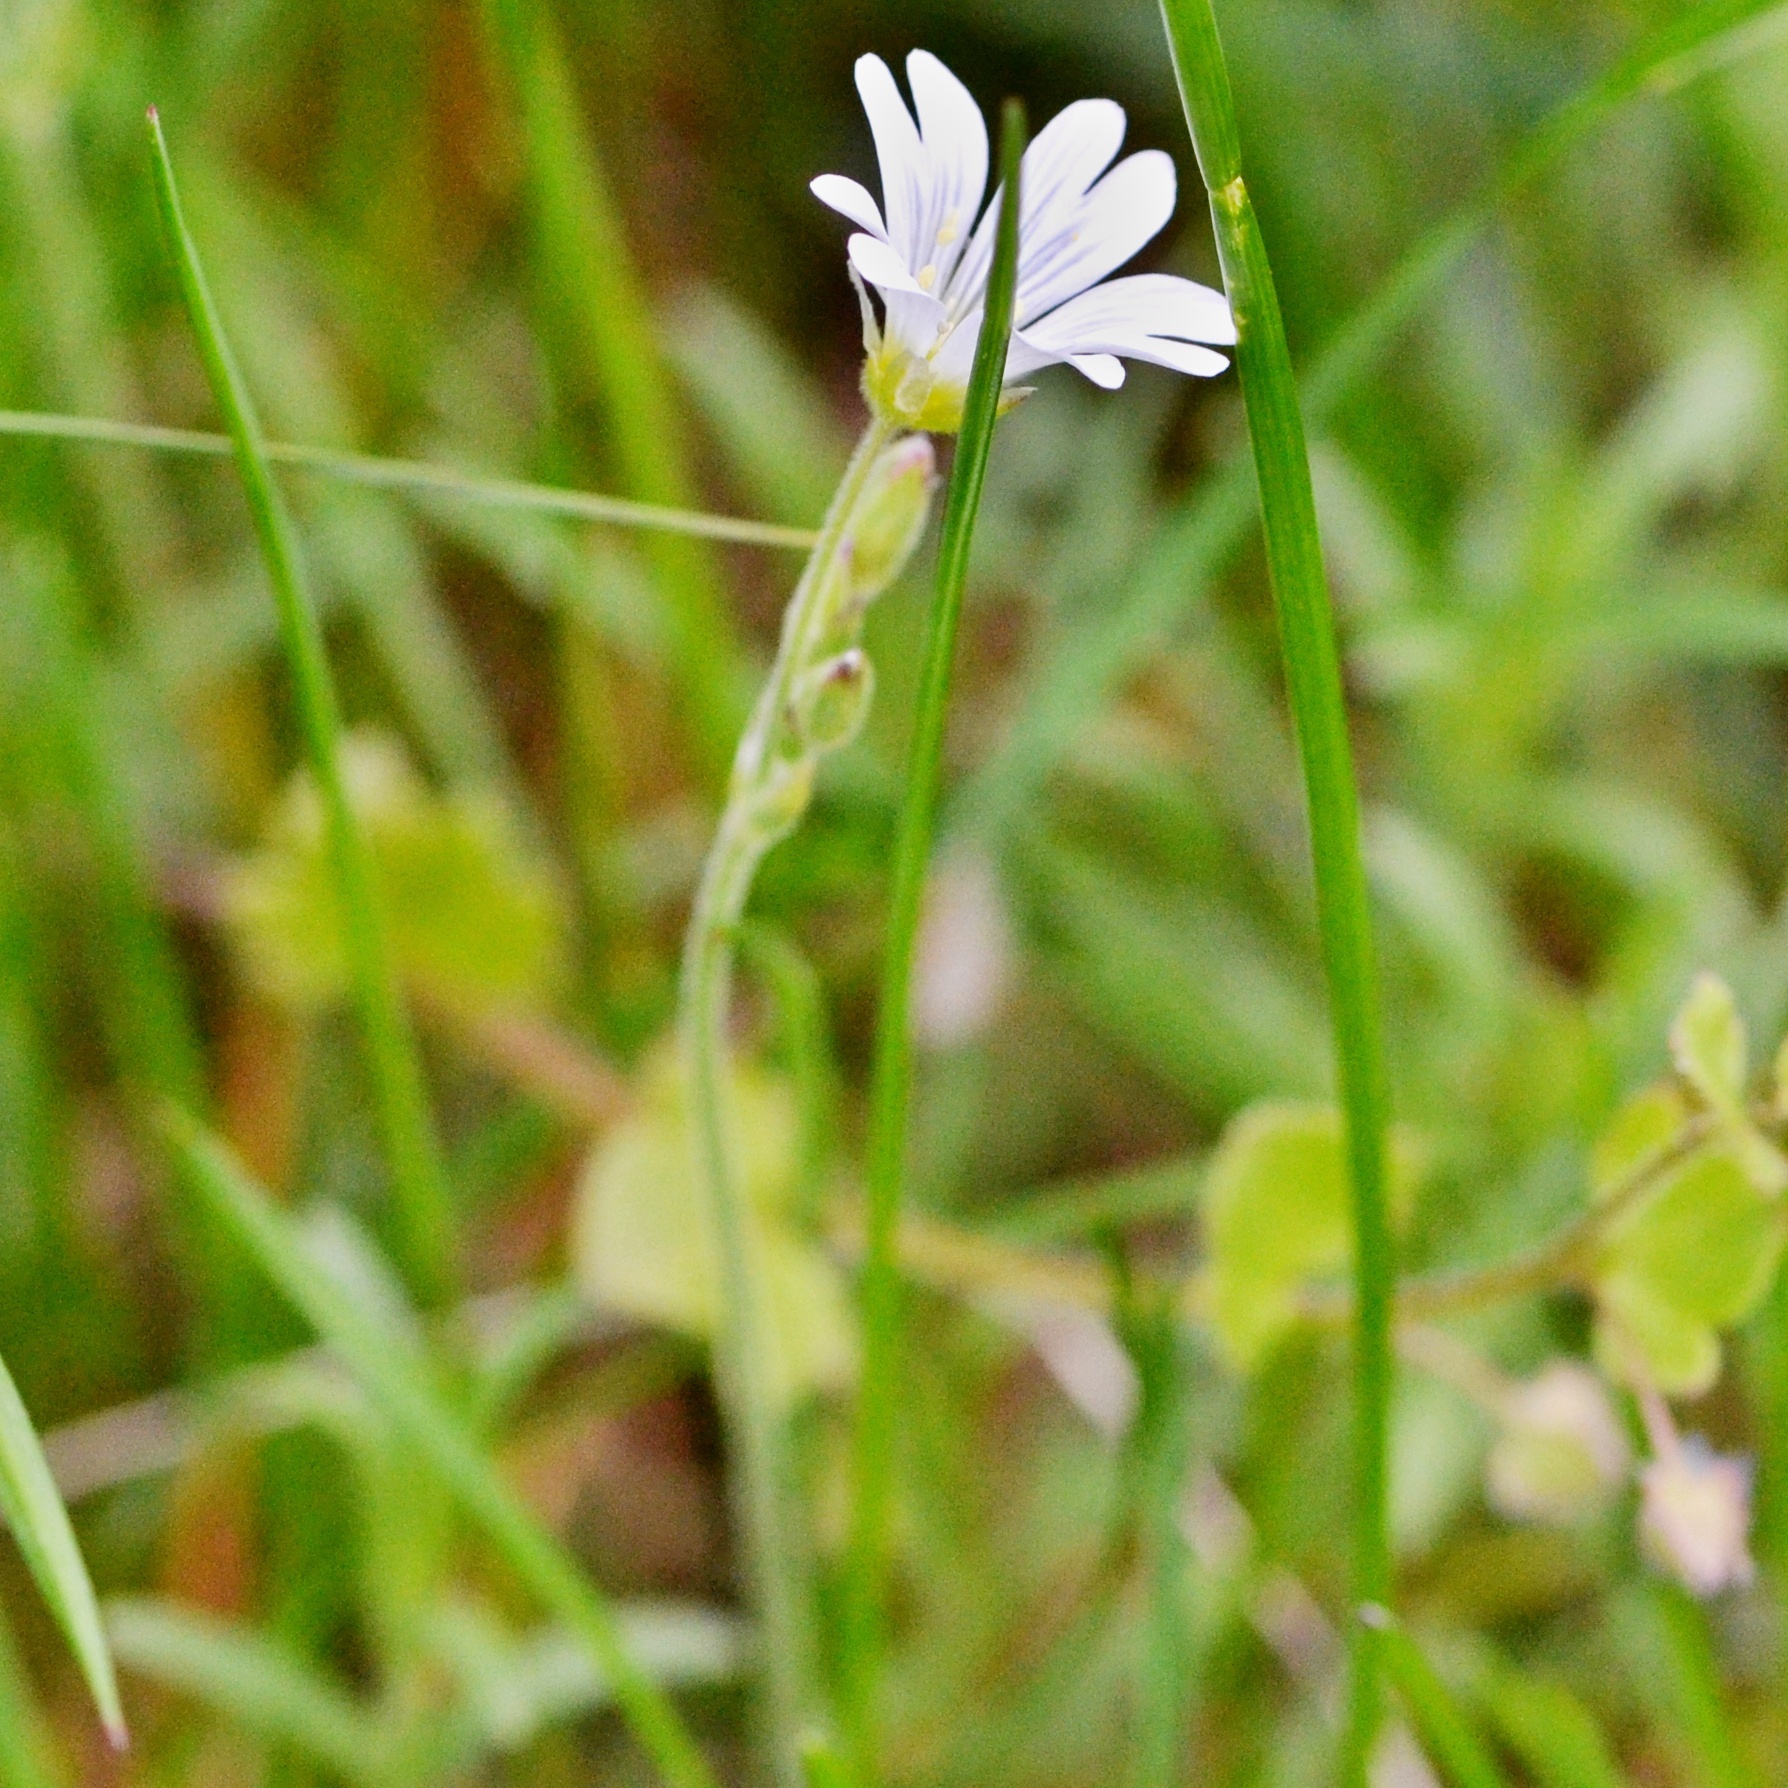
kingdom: Plantae
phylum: Tracheophyta
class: Magnoliopsida
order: Caryophyllales
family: Caryophyllaceae
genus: Cerastium
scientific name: Cerastium arvense
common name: Field mouse-ear
